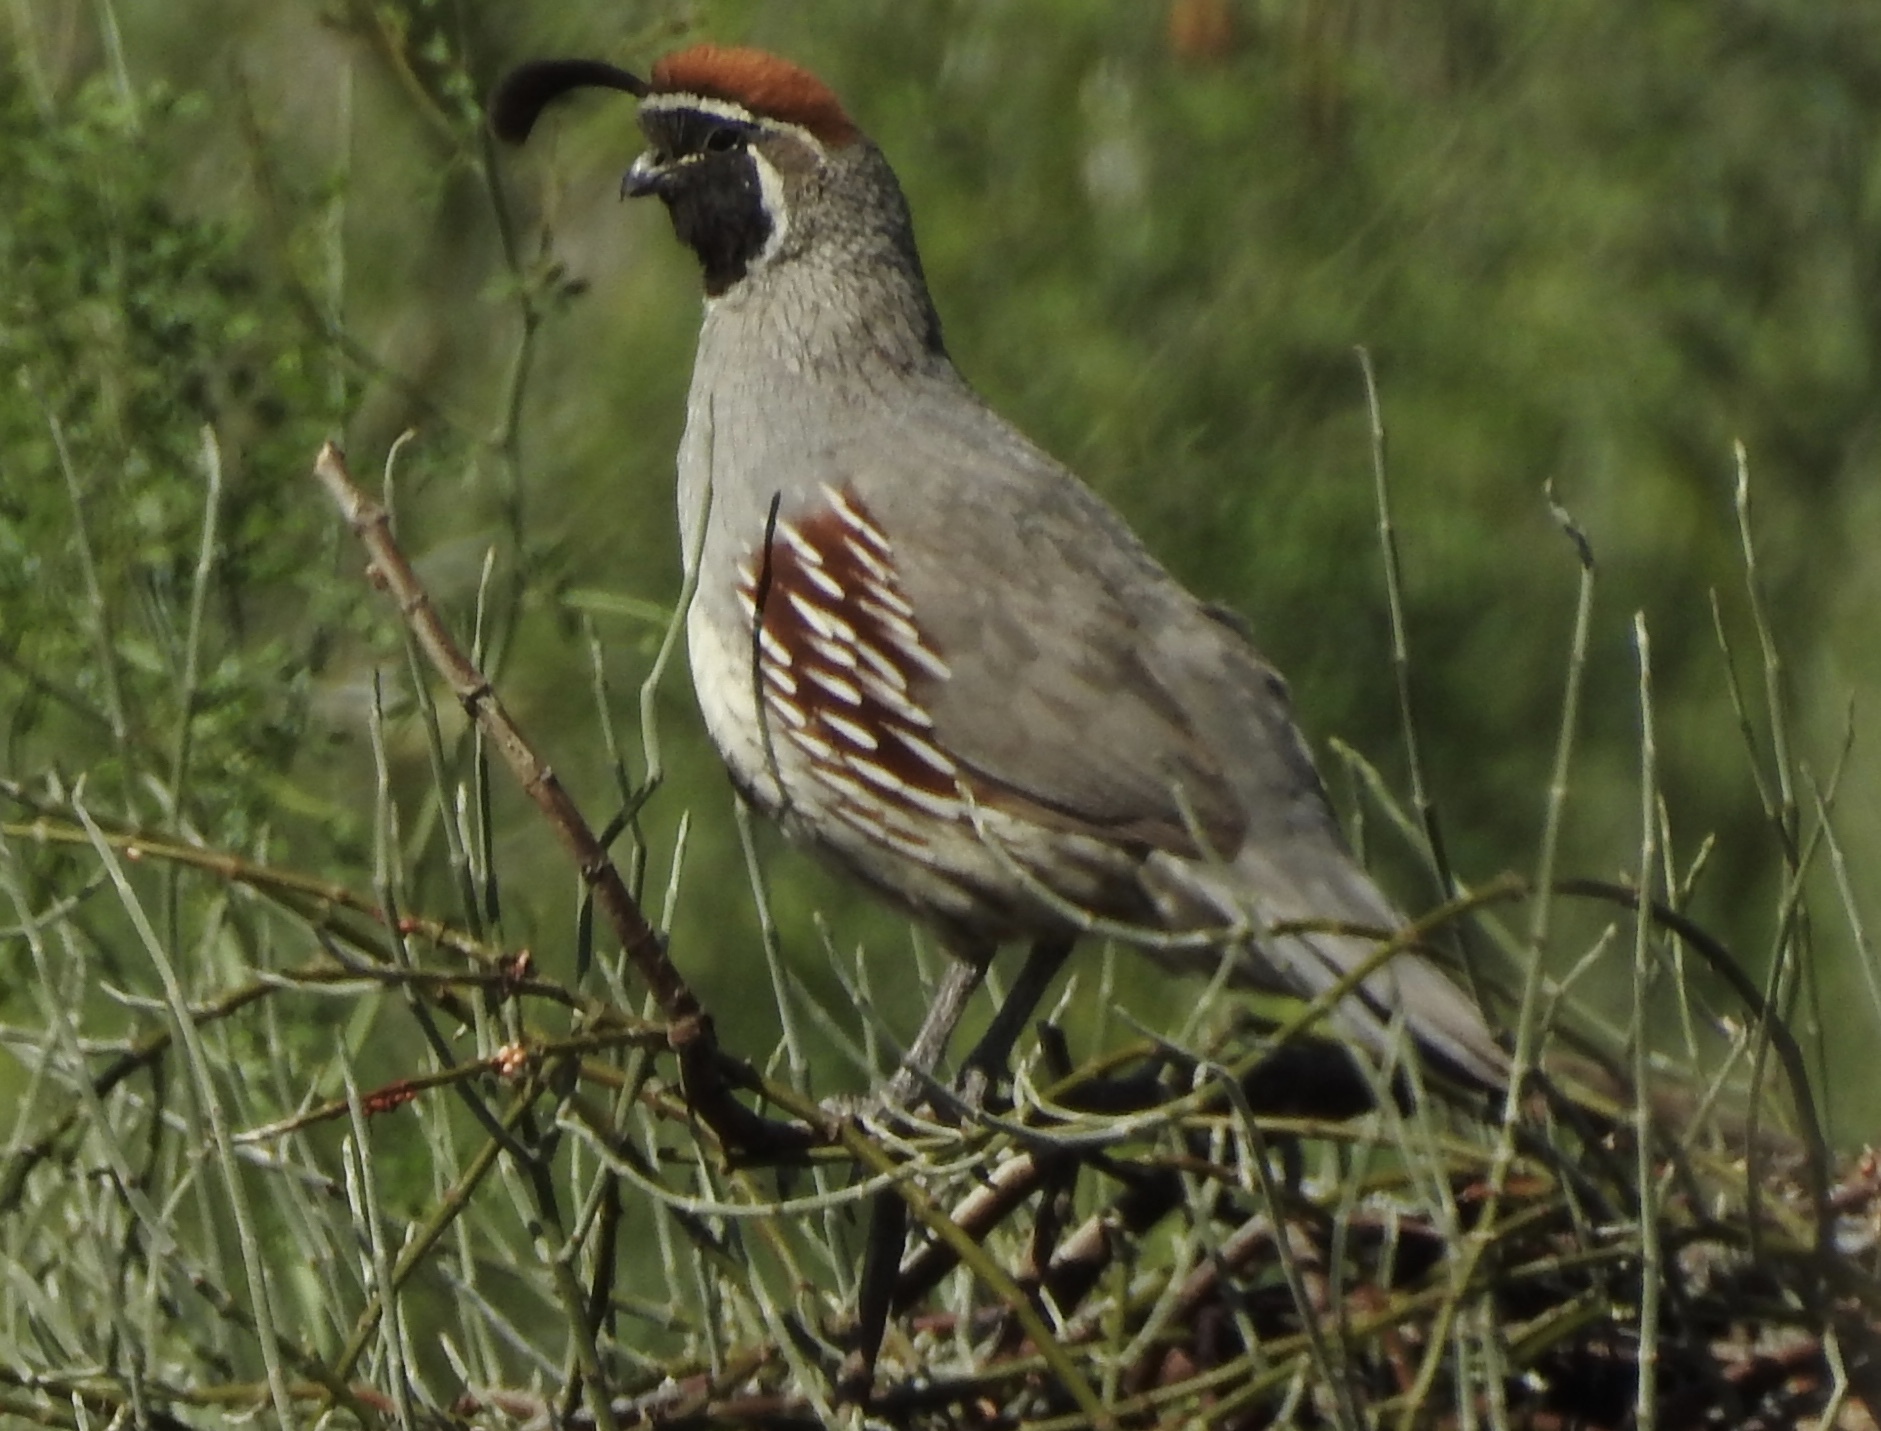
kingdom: Animalia
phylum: Chordata
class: Aves
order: Galliformes
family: Odontophoridae
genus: Callipepla
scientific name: Callipepla gambelii
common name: Gambel's quail
